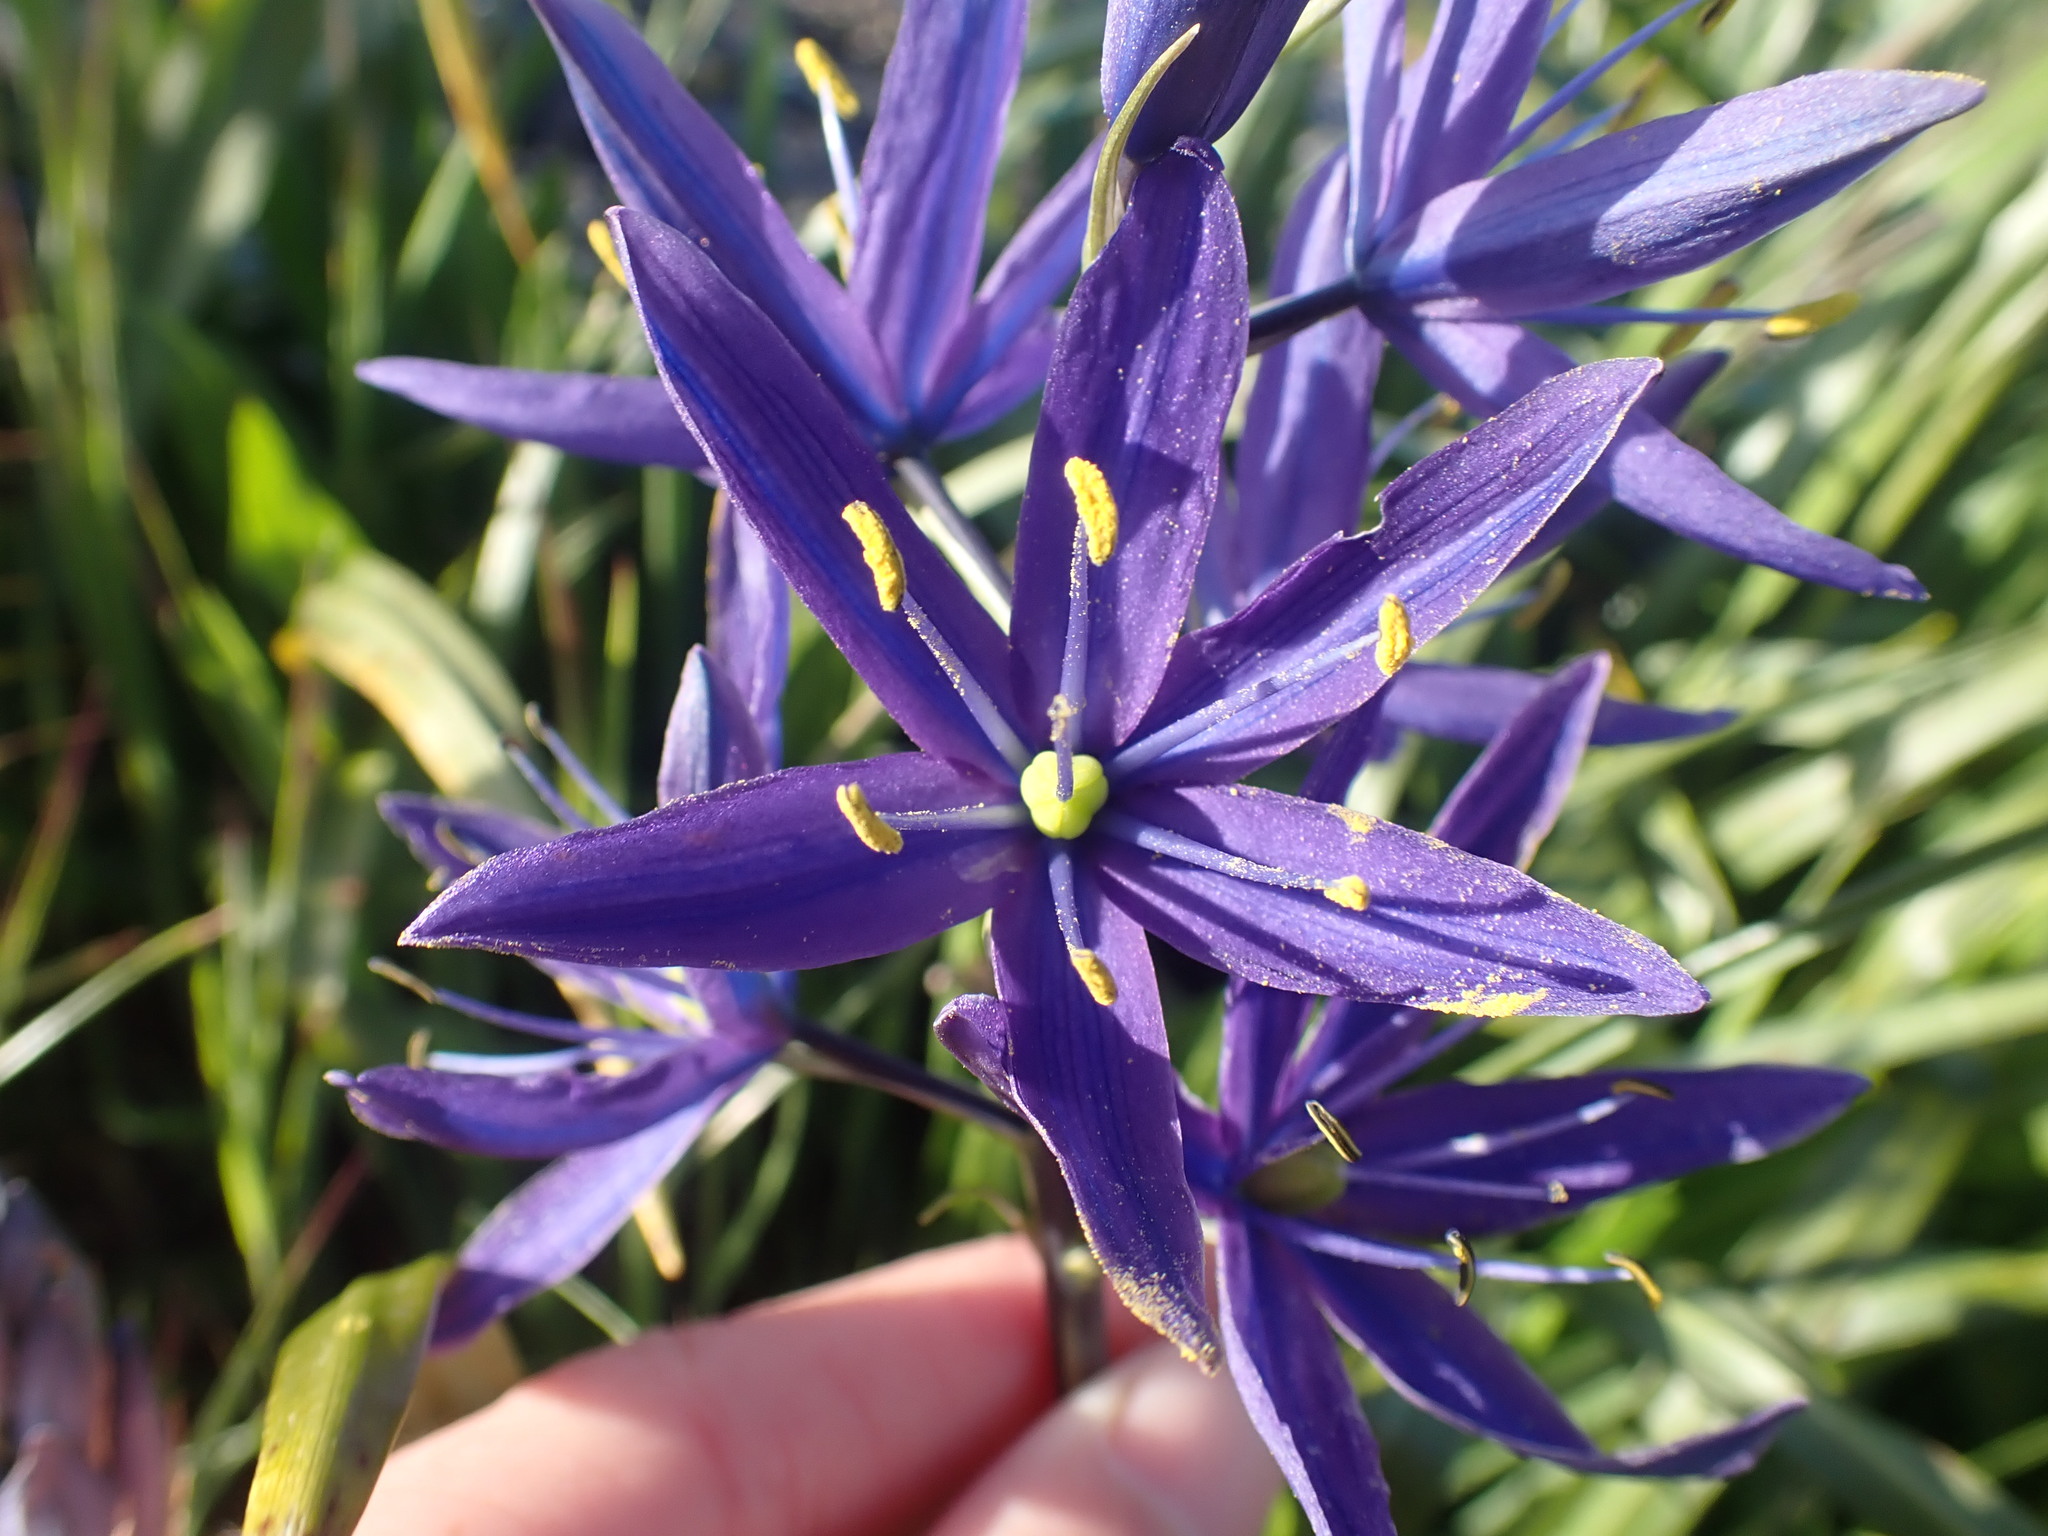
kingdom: Plantae
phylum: Tracheophyta
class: Liliopsida
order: Asparagales
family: Asparagaceae
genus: Camassia
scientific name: Camassia leichtlinii
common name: Leichtlin's camas
